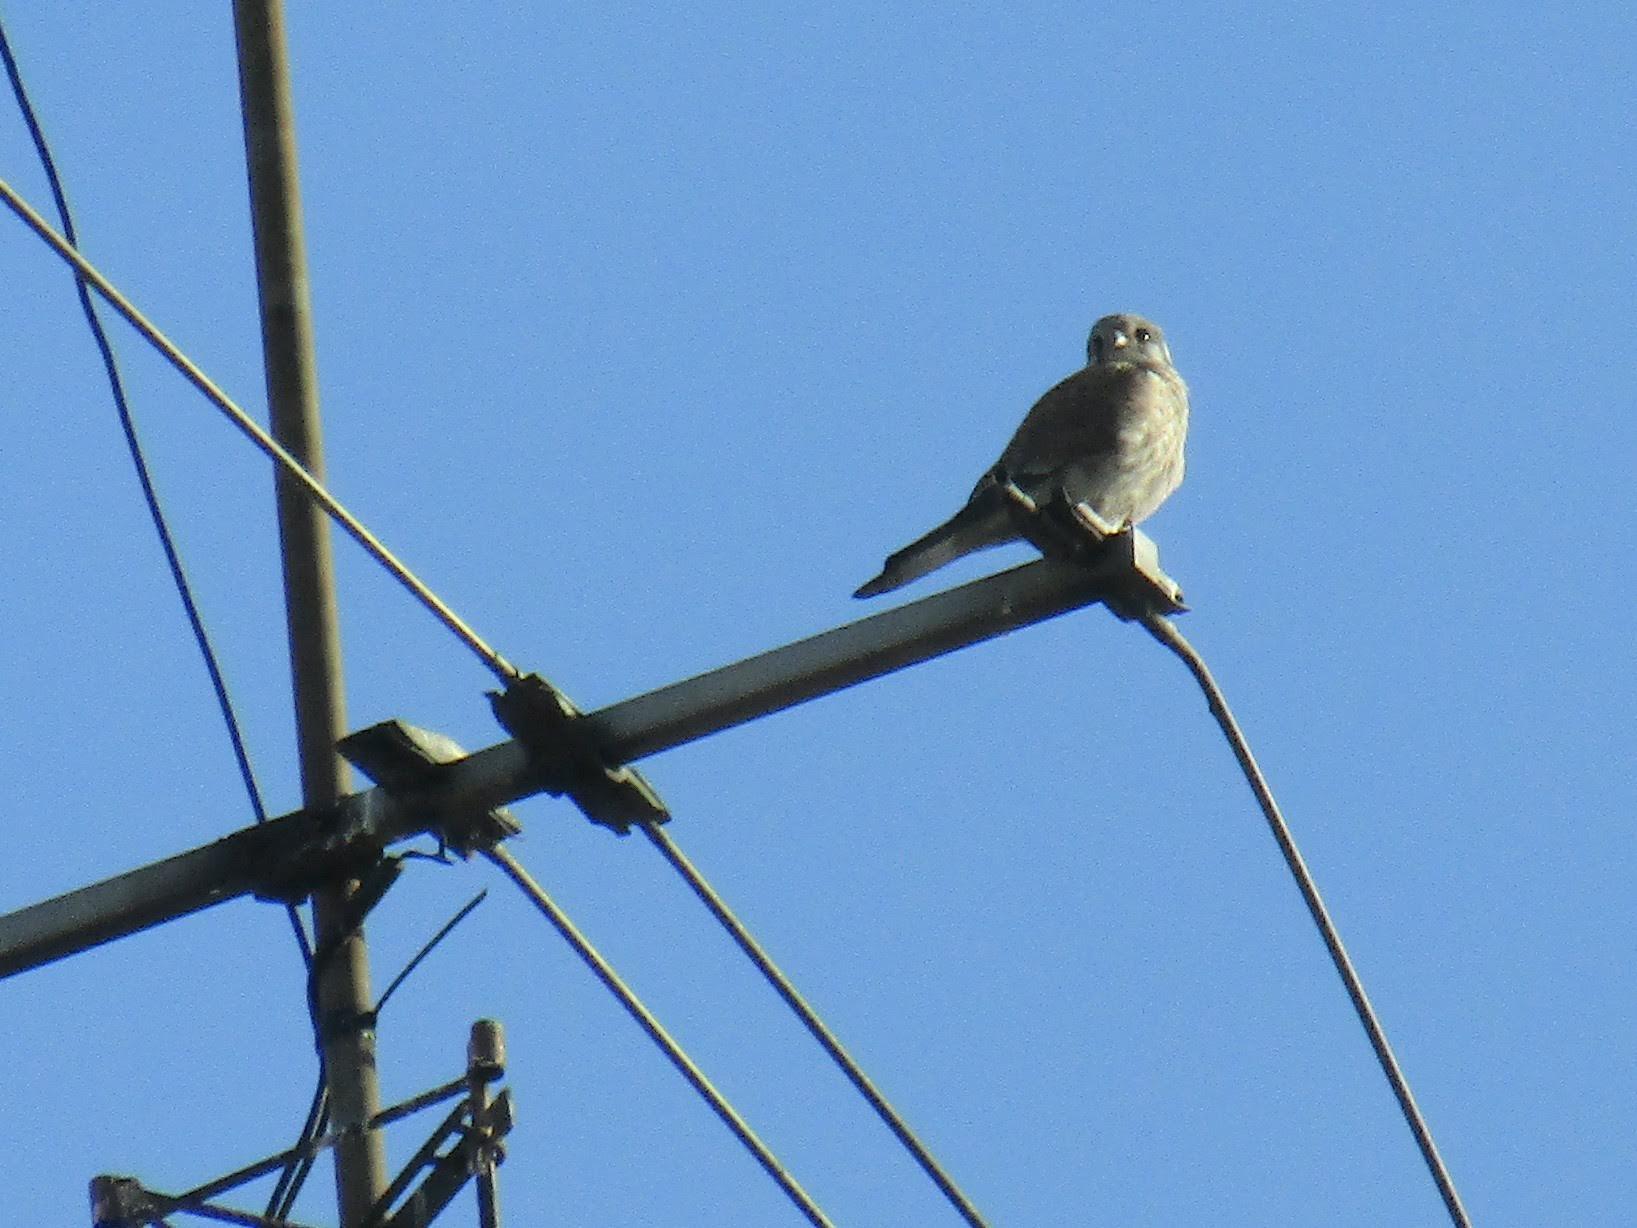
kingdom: Animalia
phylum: Chordata
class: Aves
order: Falconiformes
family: Falconidae
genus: Falco
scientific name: Falco sparverius
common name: American kestrel
